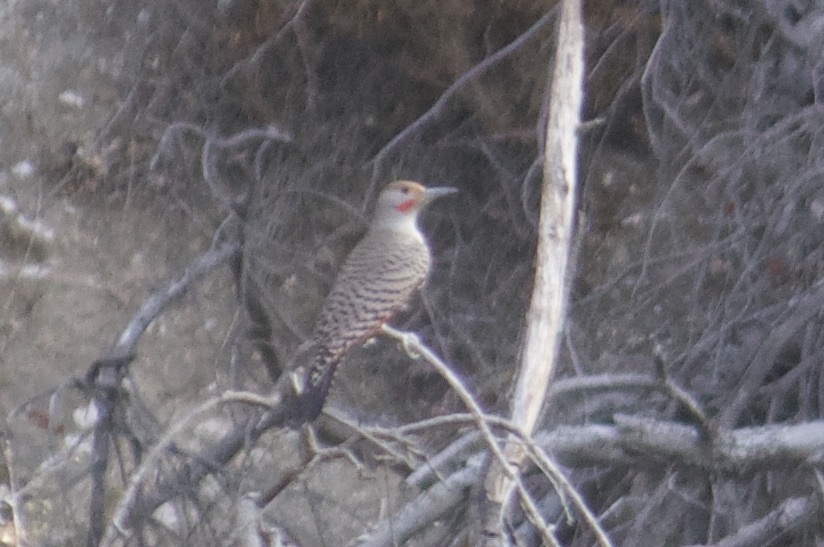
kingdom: Animalia
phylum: Chordata
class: Aves
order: Piciformes
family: Picidae
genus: Colaptes
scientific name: Colaptes auratus
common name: Northern flicker
